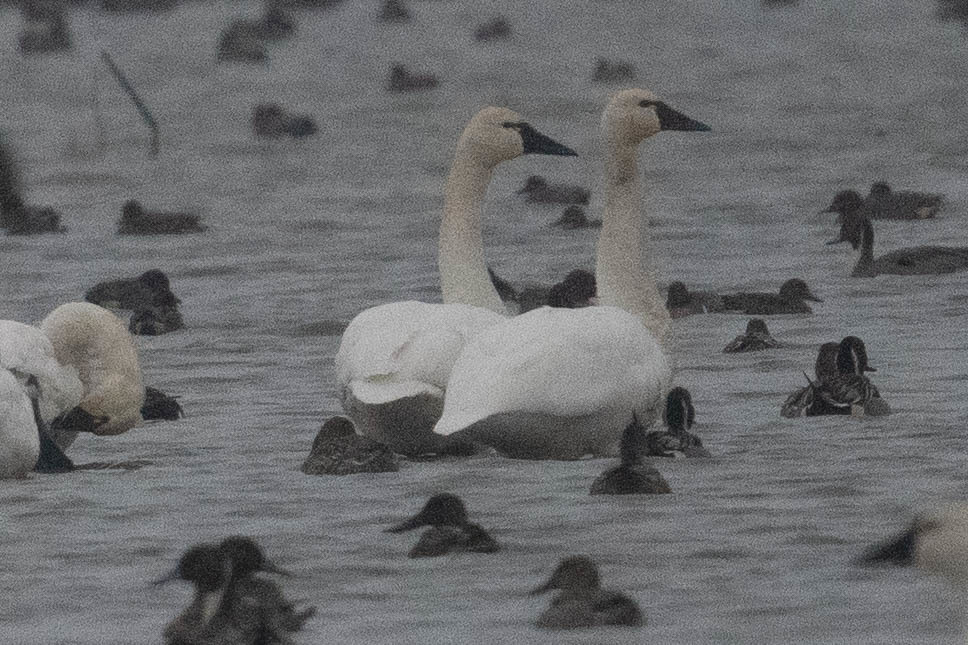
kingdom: Animalia
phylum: Chordata
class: Aves
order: Anseriformes
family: Anatidae
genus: Cygnus
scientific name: Cygnus columbianus
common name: Tundra swan
